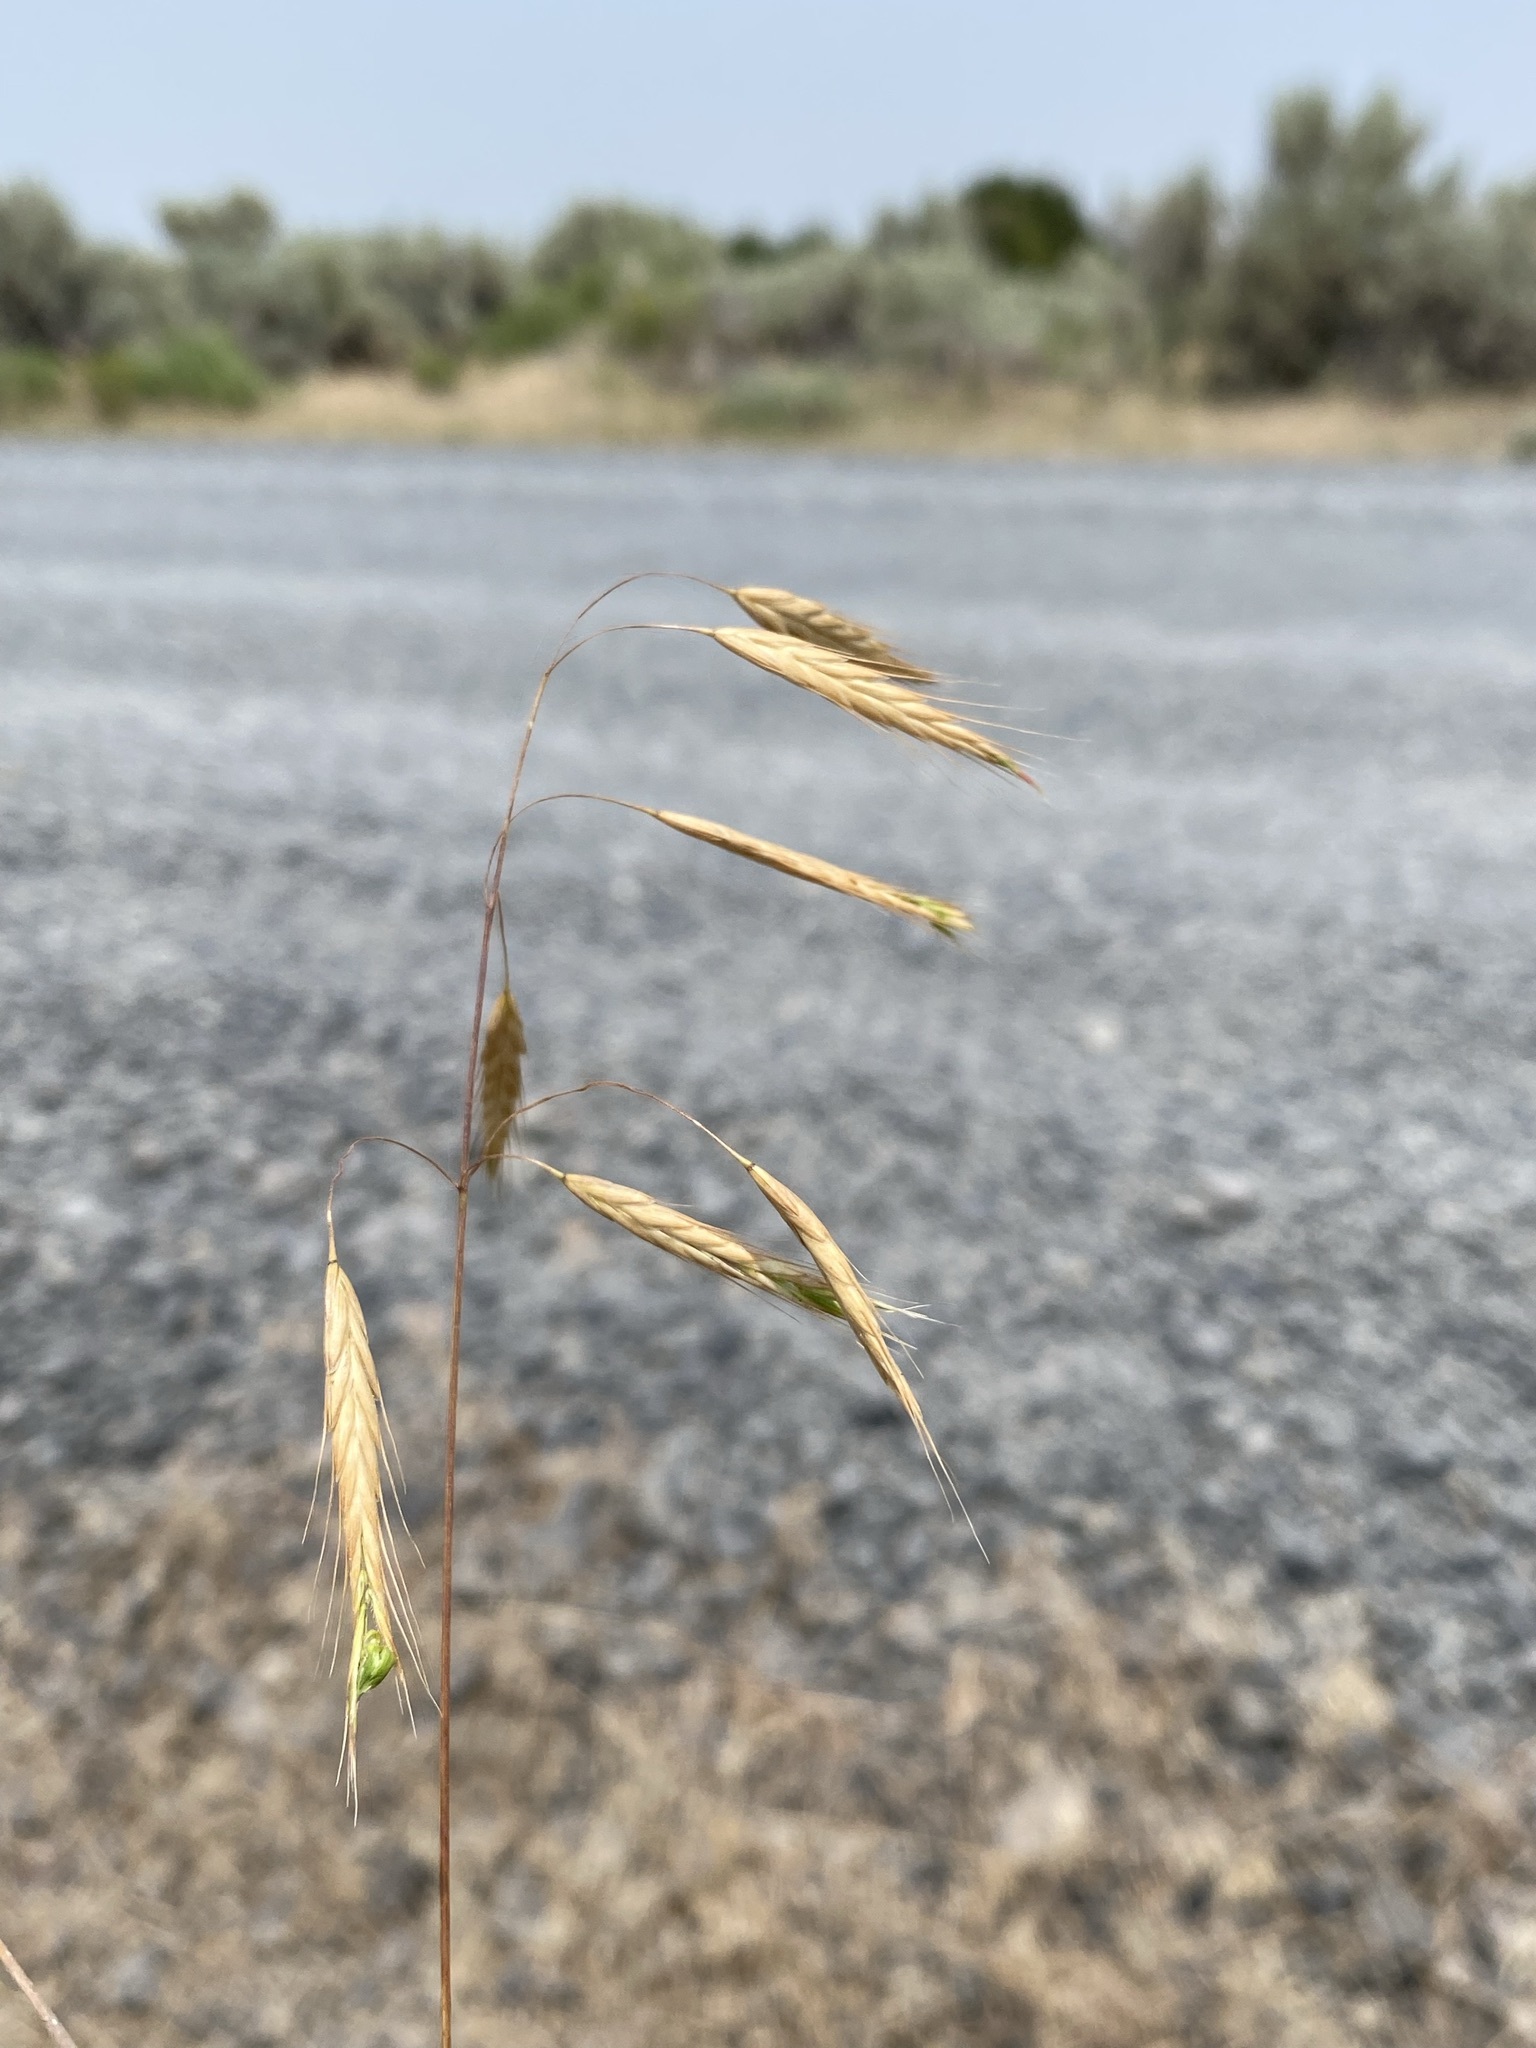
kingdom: Plantae
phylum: Tracheophyta
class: Liliopsida
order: Poales
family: Poaceae
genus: Bromus
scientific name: Bromus japonicus
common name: Japanese brome
